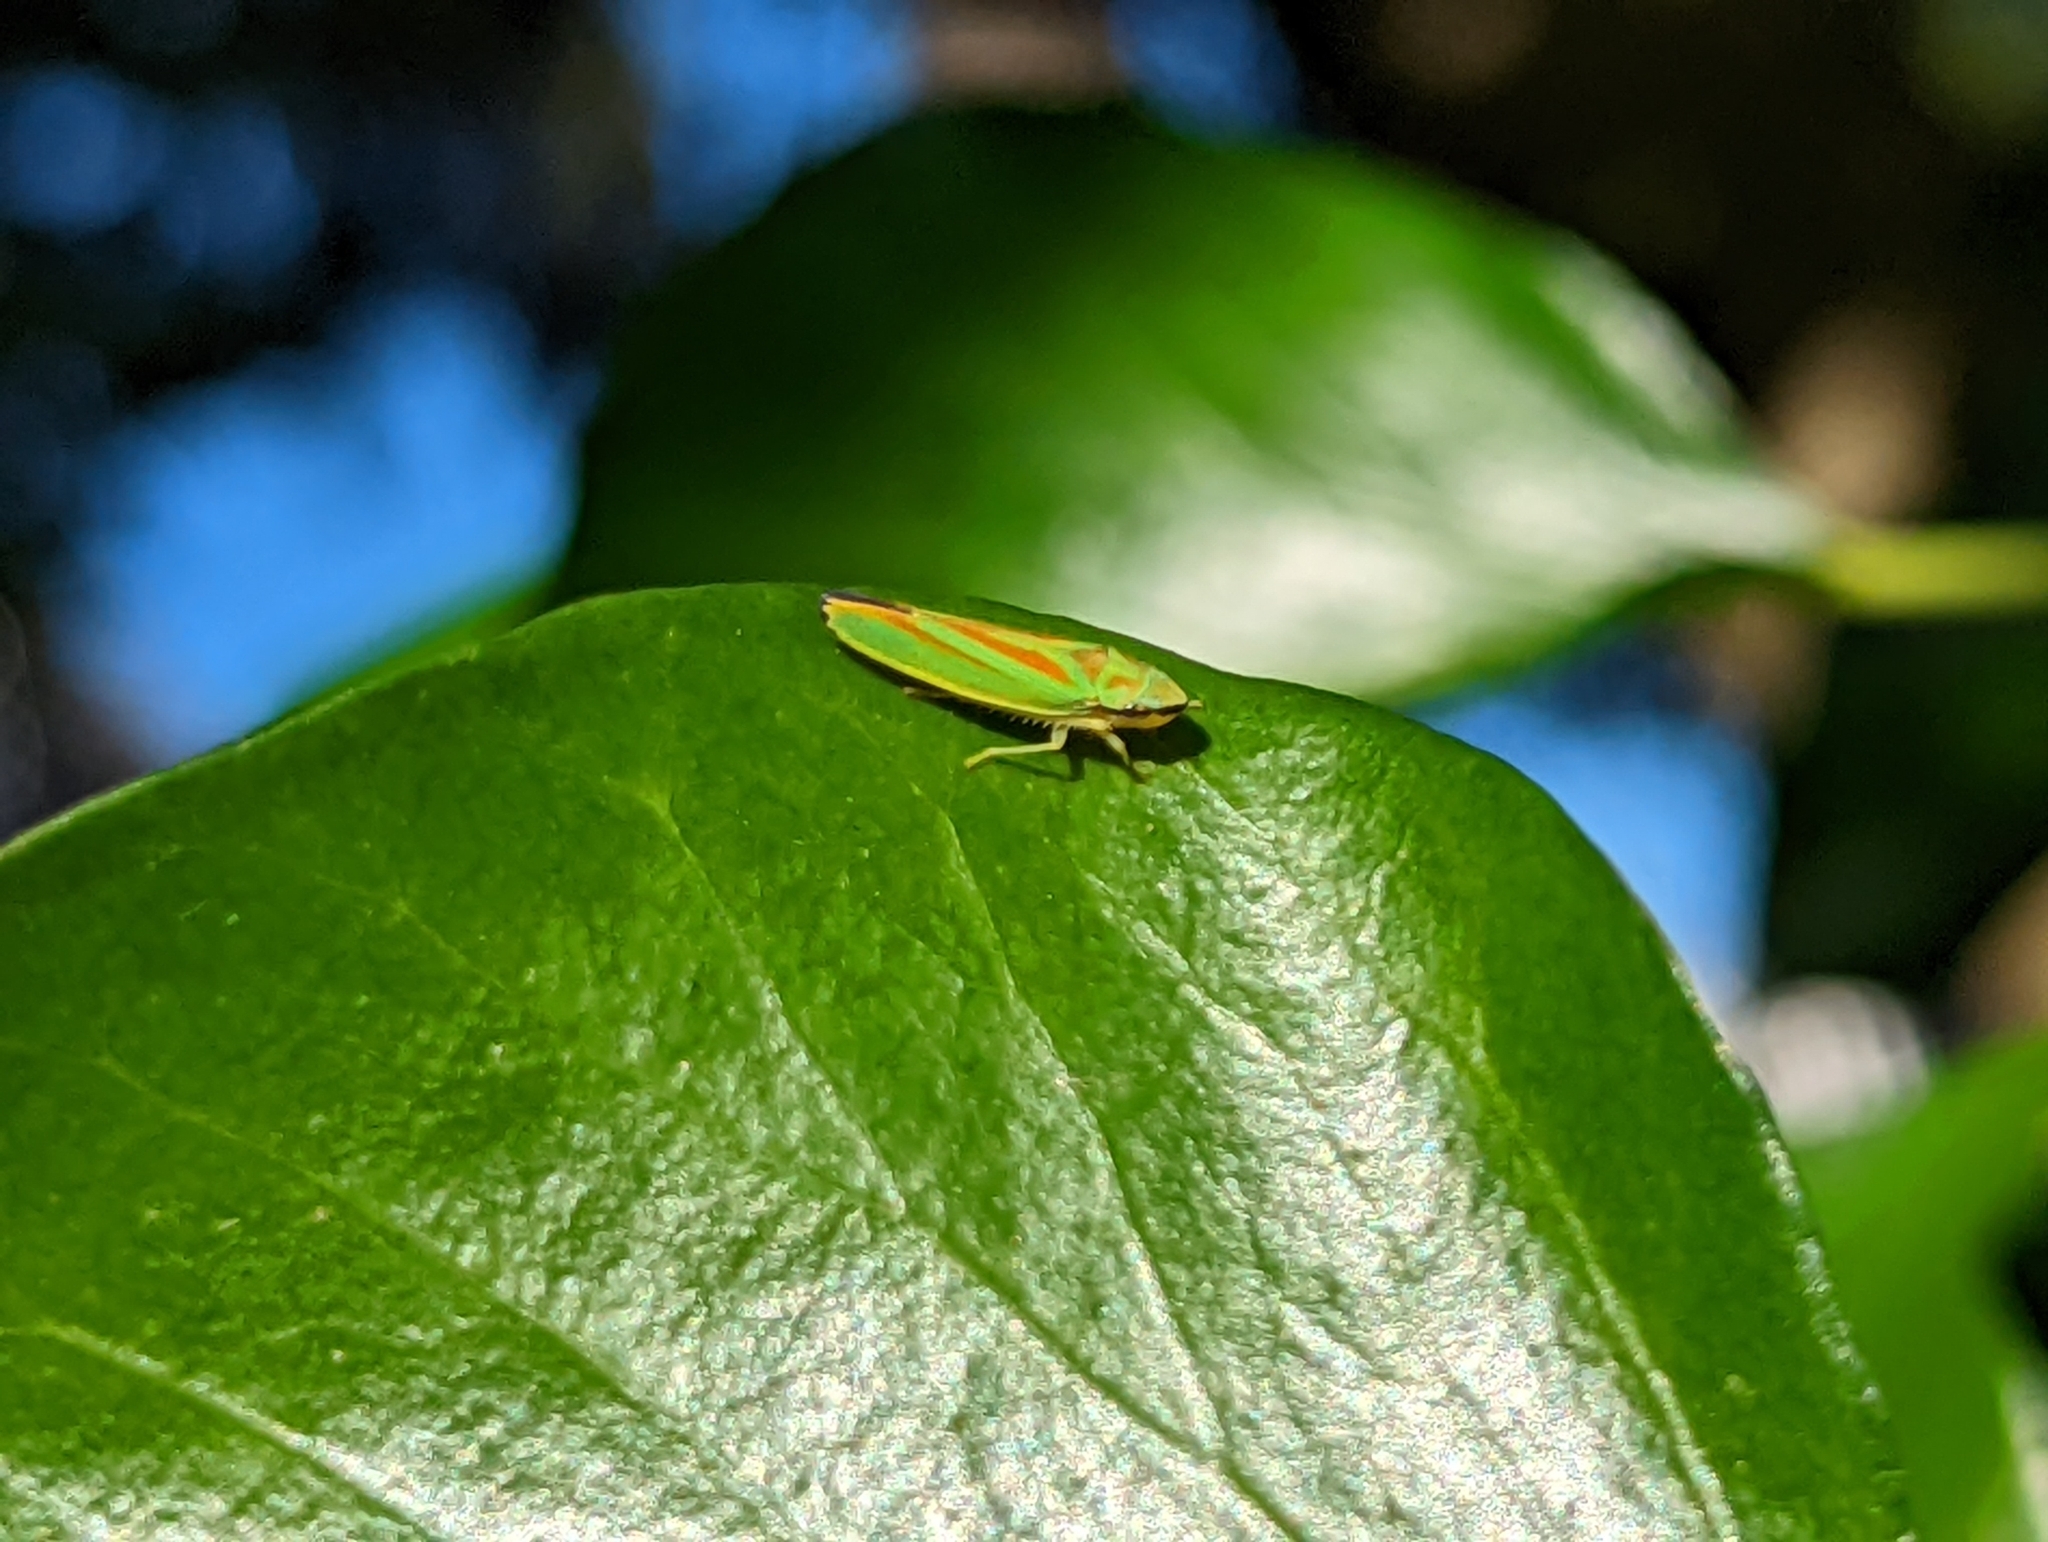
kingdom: Animalia
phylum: Arthropoda
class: Insecta
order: Hemiptera
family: Cicadellidae
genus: Graphocephala
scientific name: Graphocephala fennahi
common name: Rhododendron leafhopper
